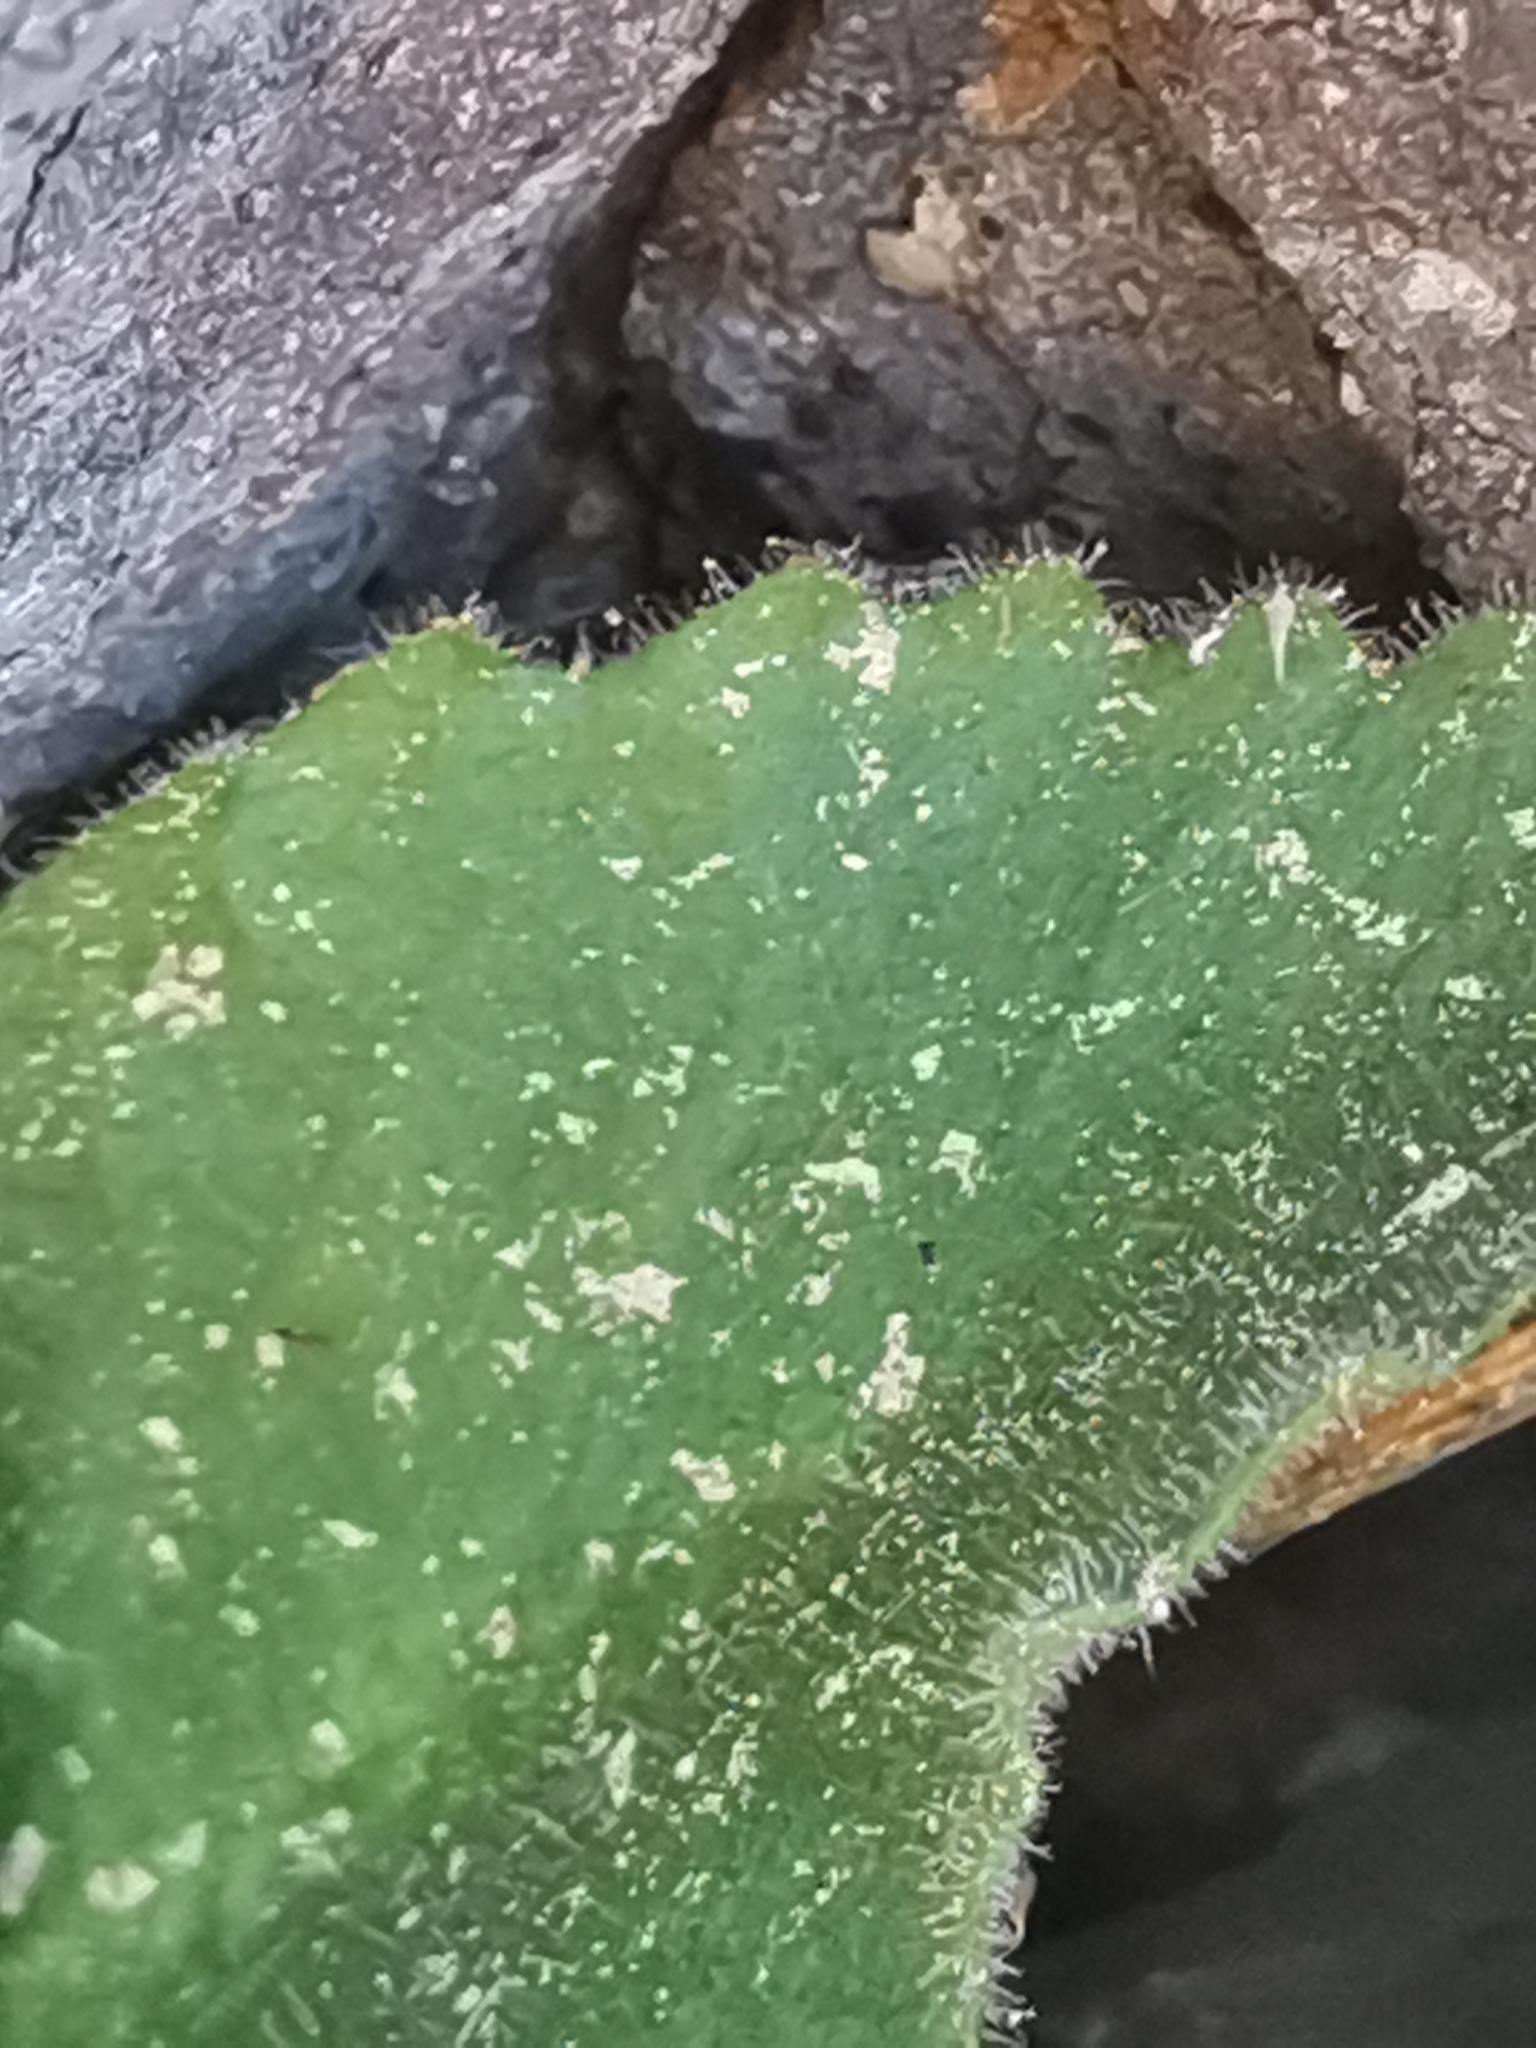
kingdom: Plantae
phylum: Tracheophyta
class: Magnoliopsida
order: Ericales
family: Primulaceae
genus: Primula
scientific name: Primula villosa
